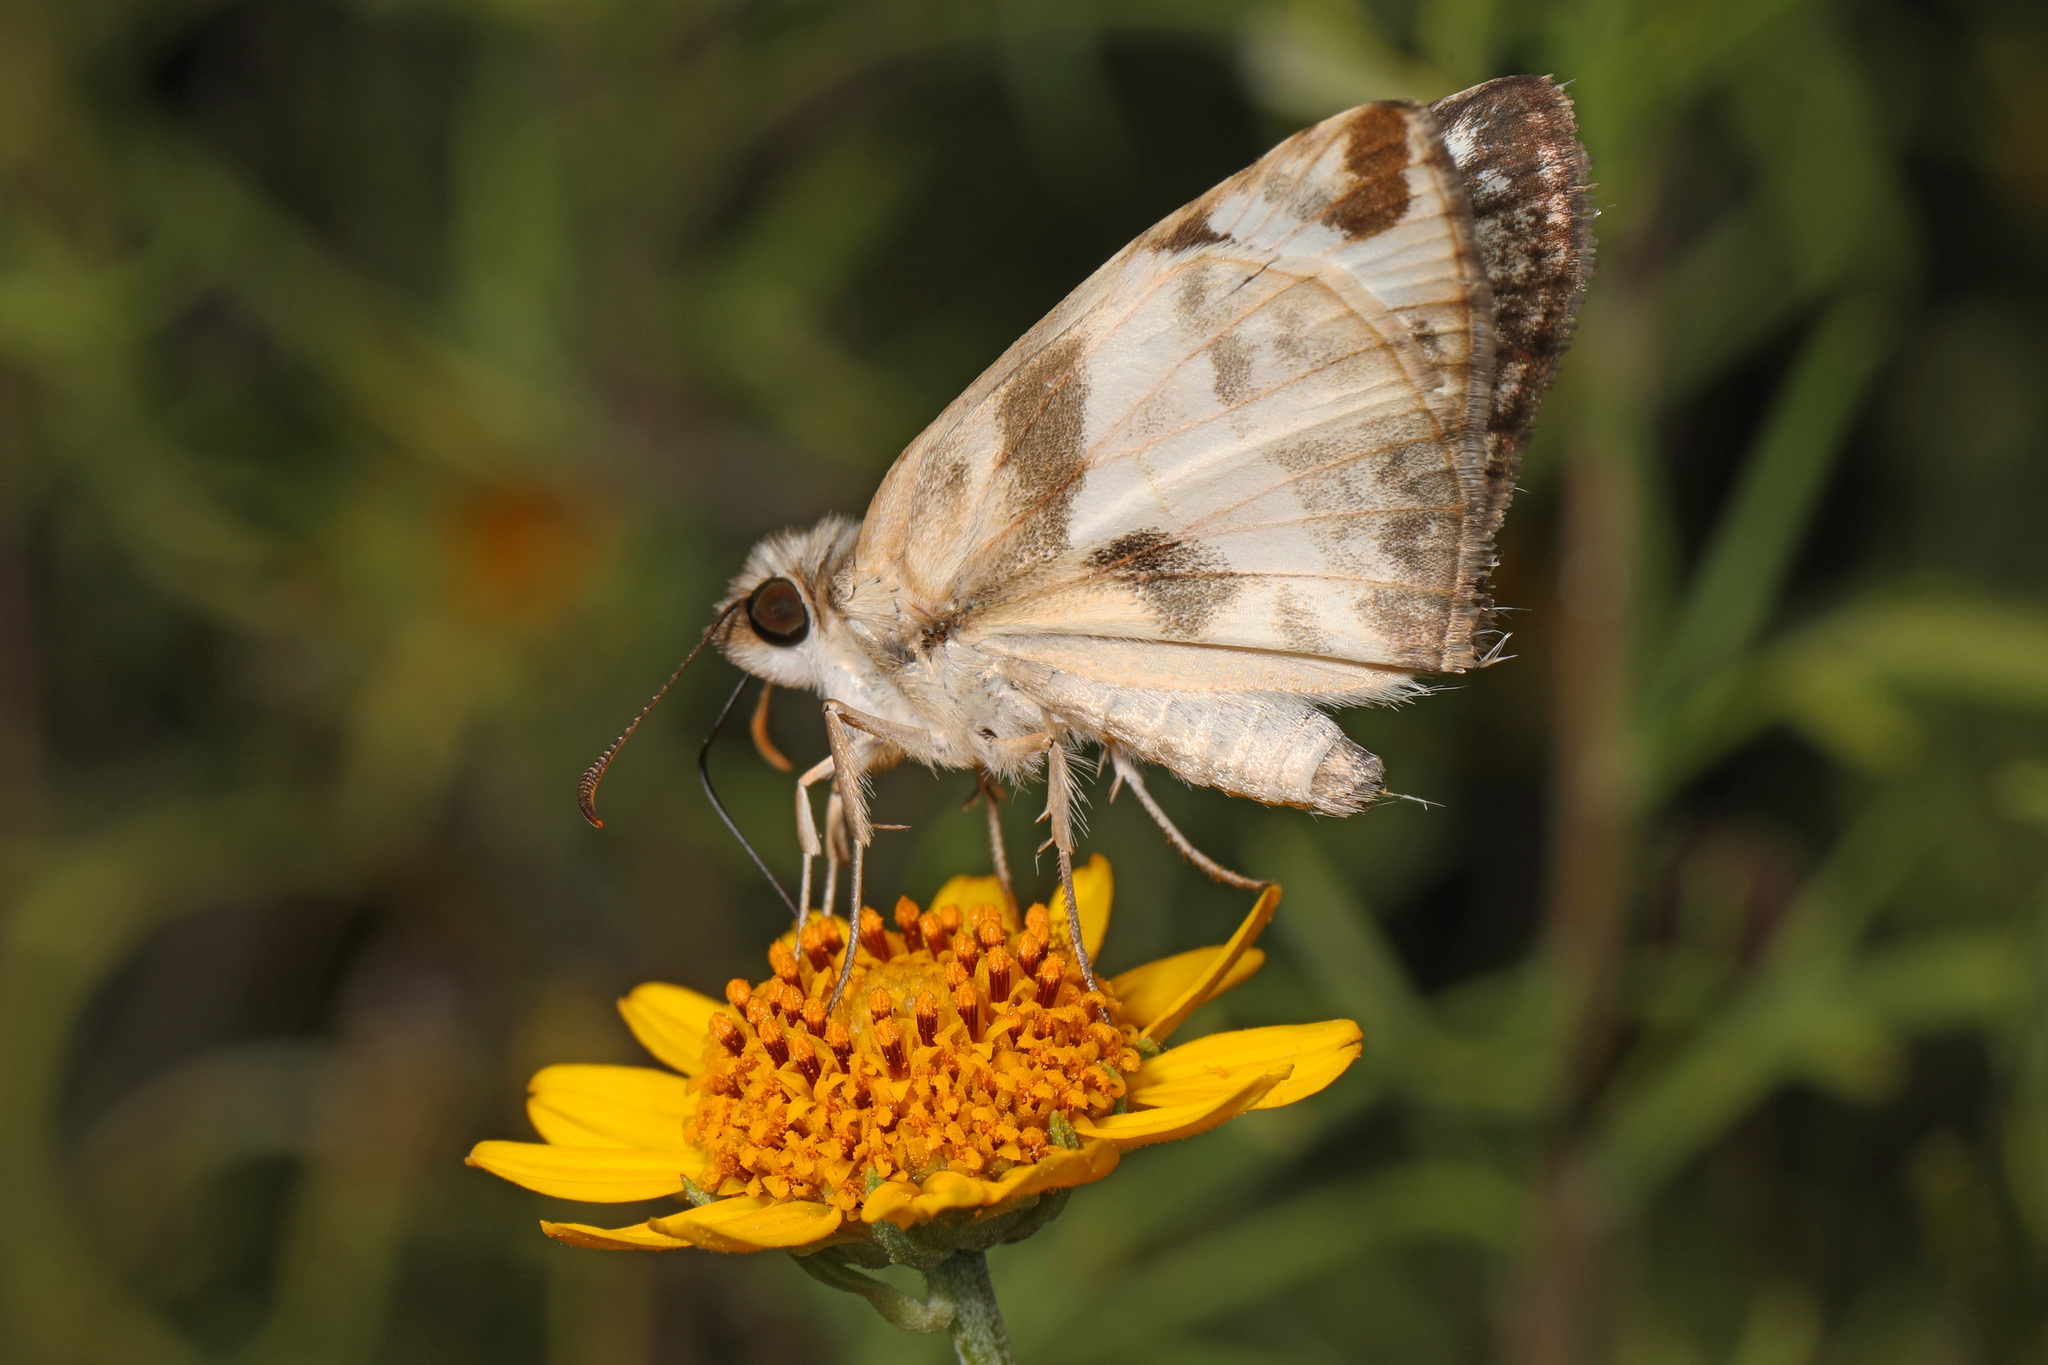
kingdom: Animalia
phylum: Arthropoda
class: Insecta
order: Lepidoptera
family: Hesperiidae
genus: Heliopetes
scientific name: Heliopetes laviana
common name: Laviana white-skipper
